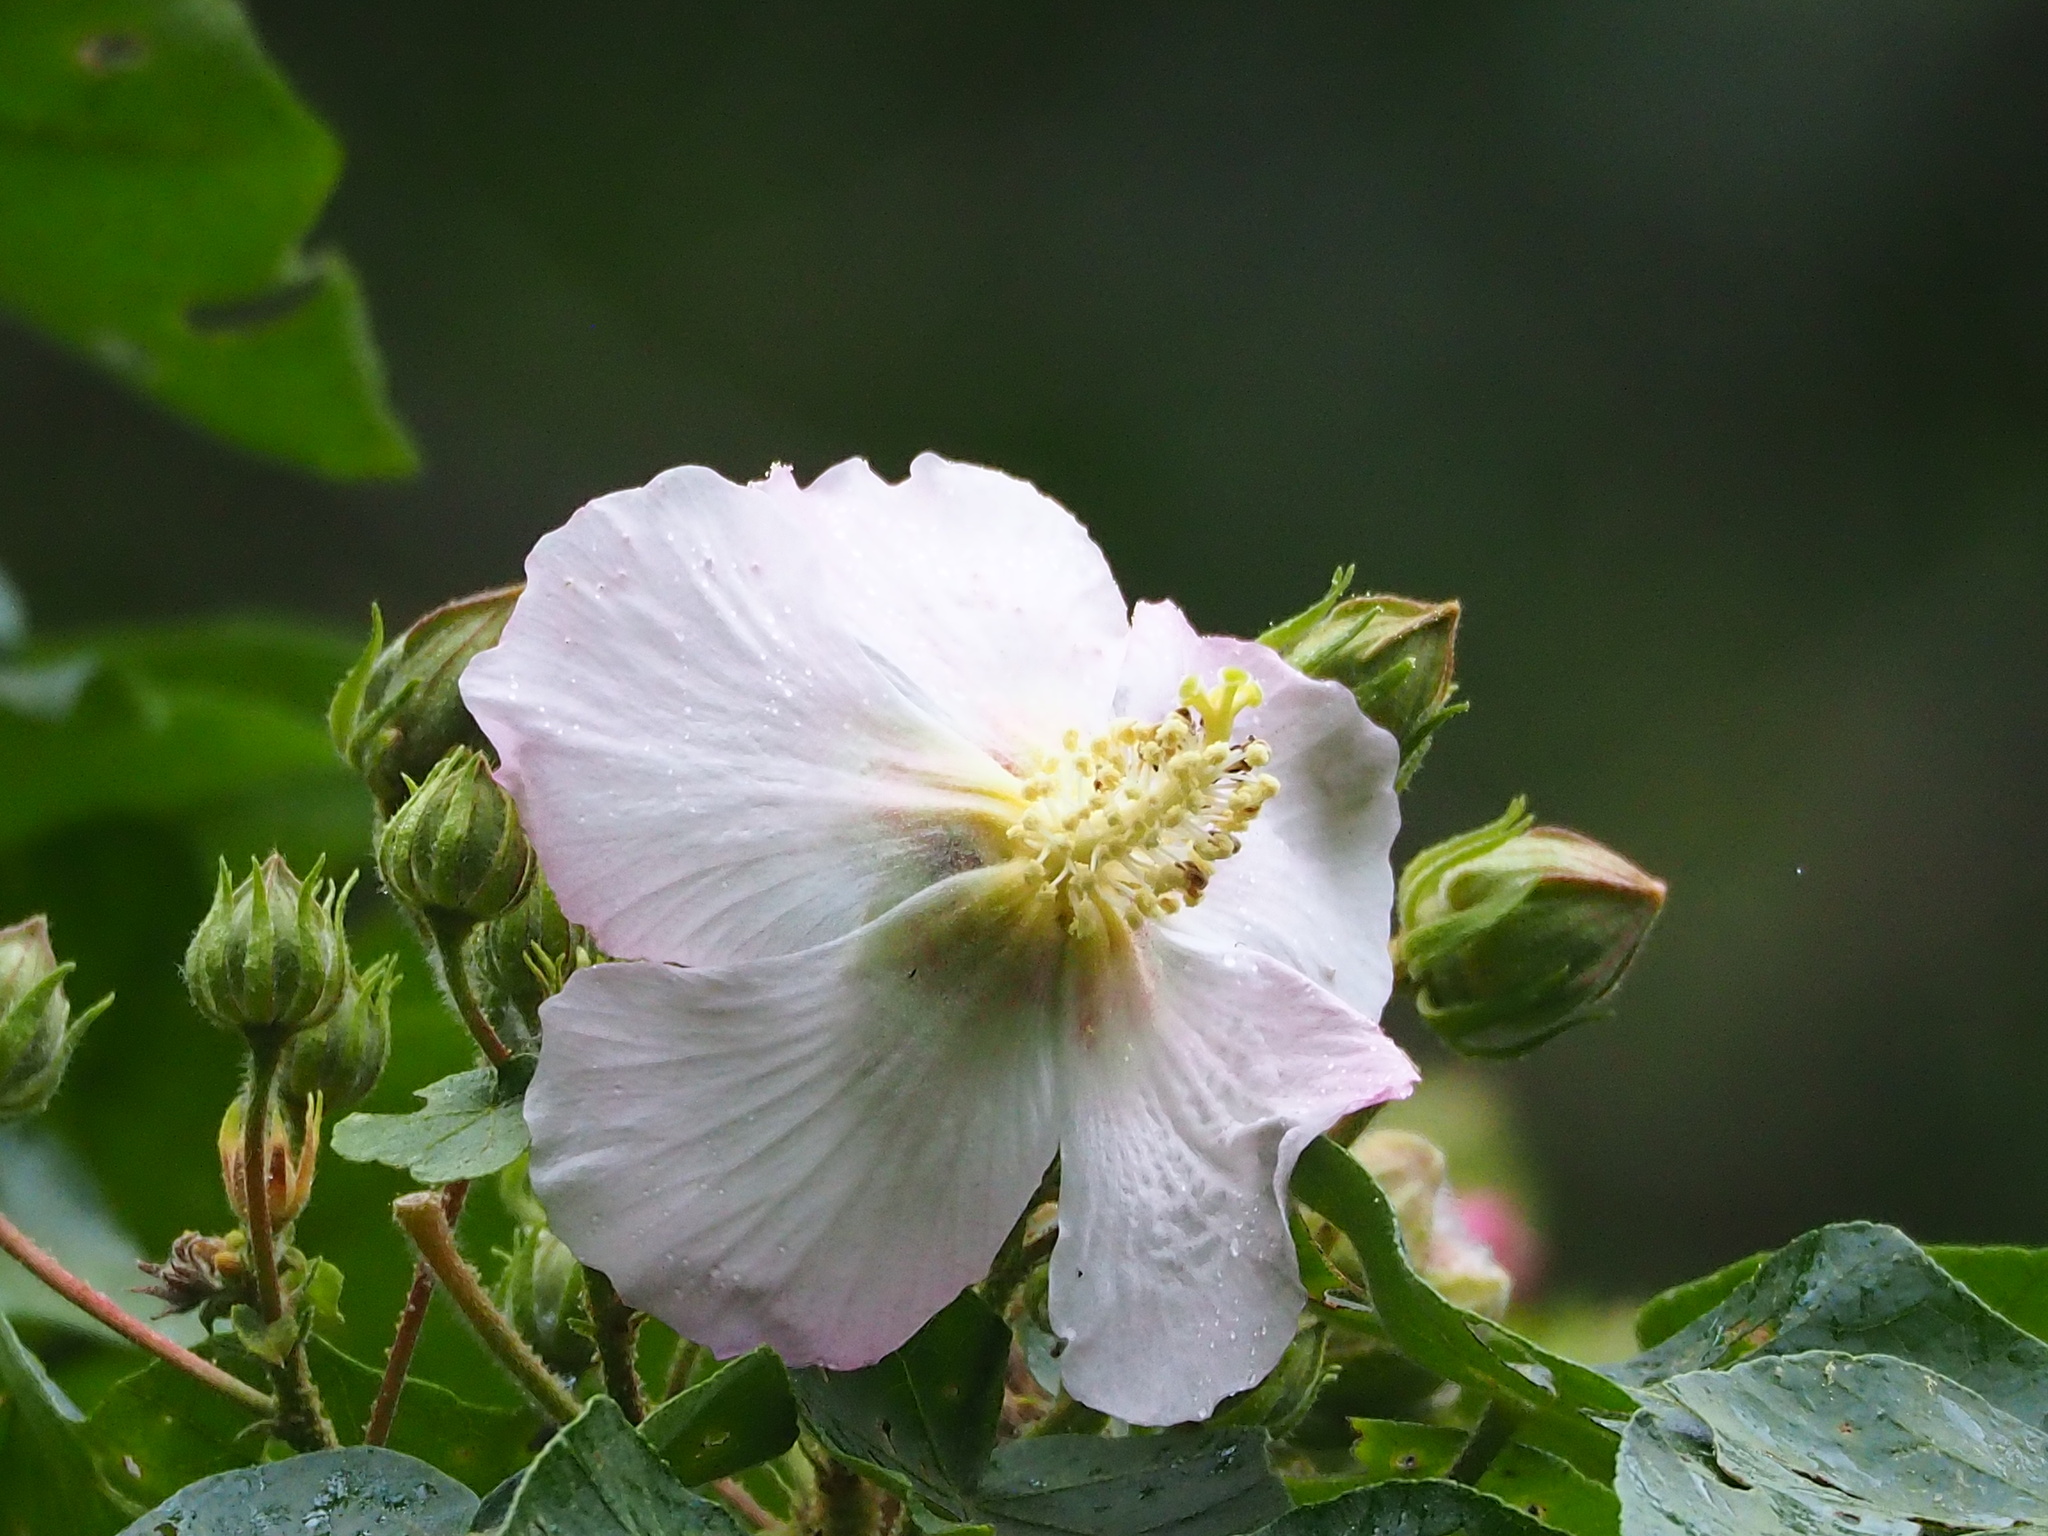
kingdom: Plantae
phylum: Tracheophyta
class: Magnoliopsida
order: Malvales
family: Malvaceae
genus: Hibiscus
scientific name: Hibiscus taiwanensis
